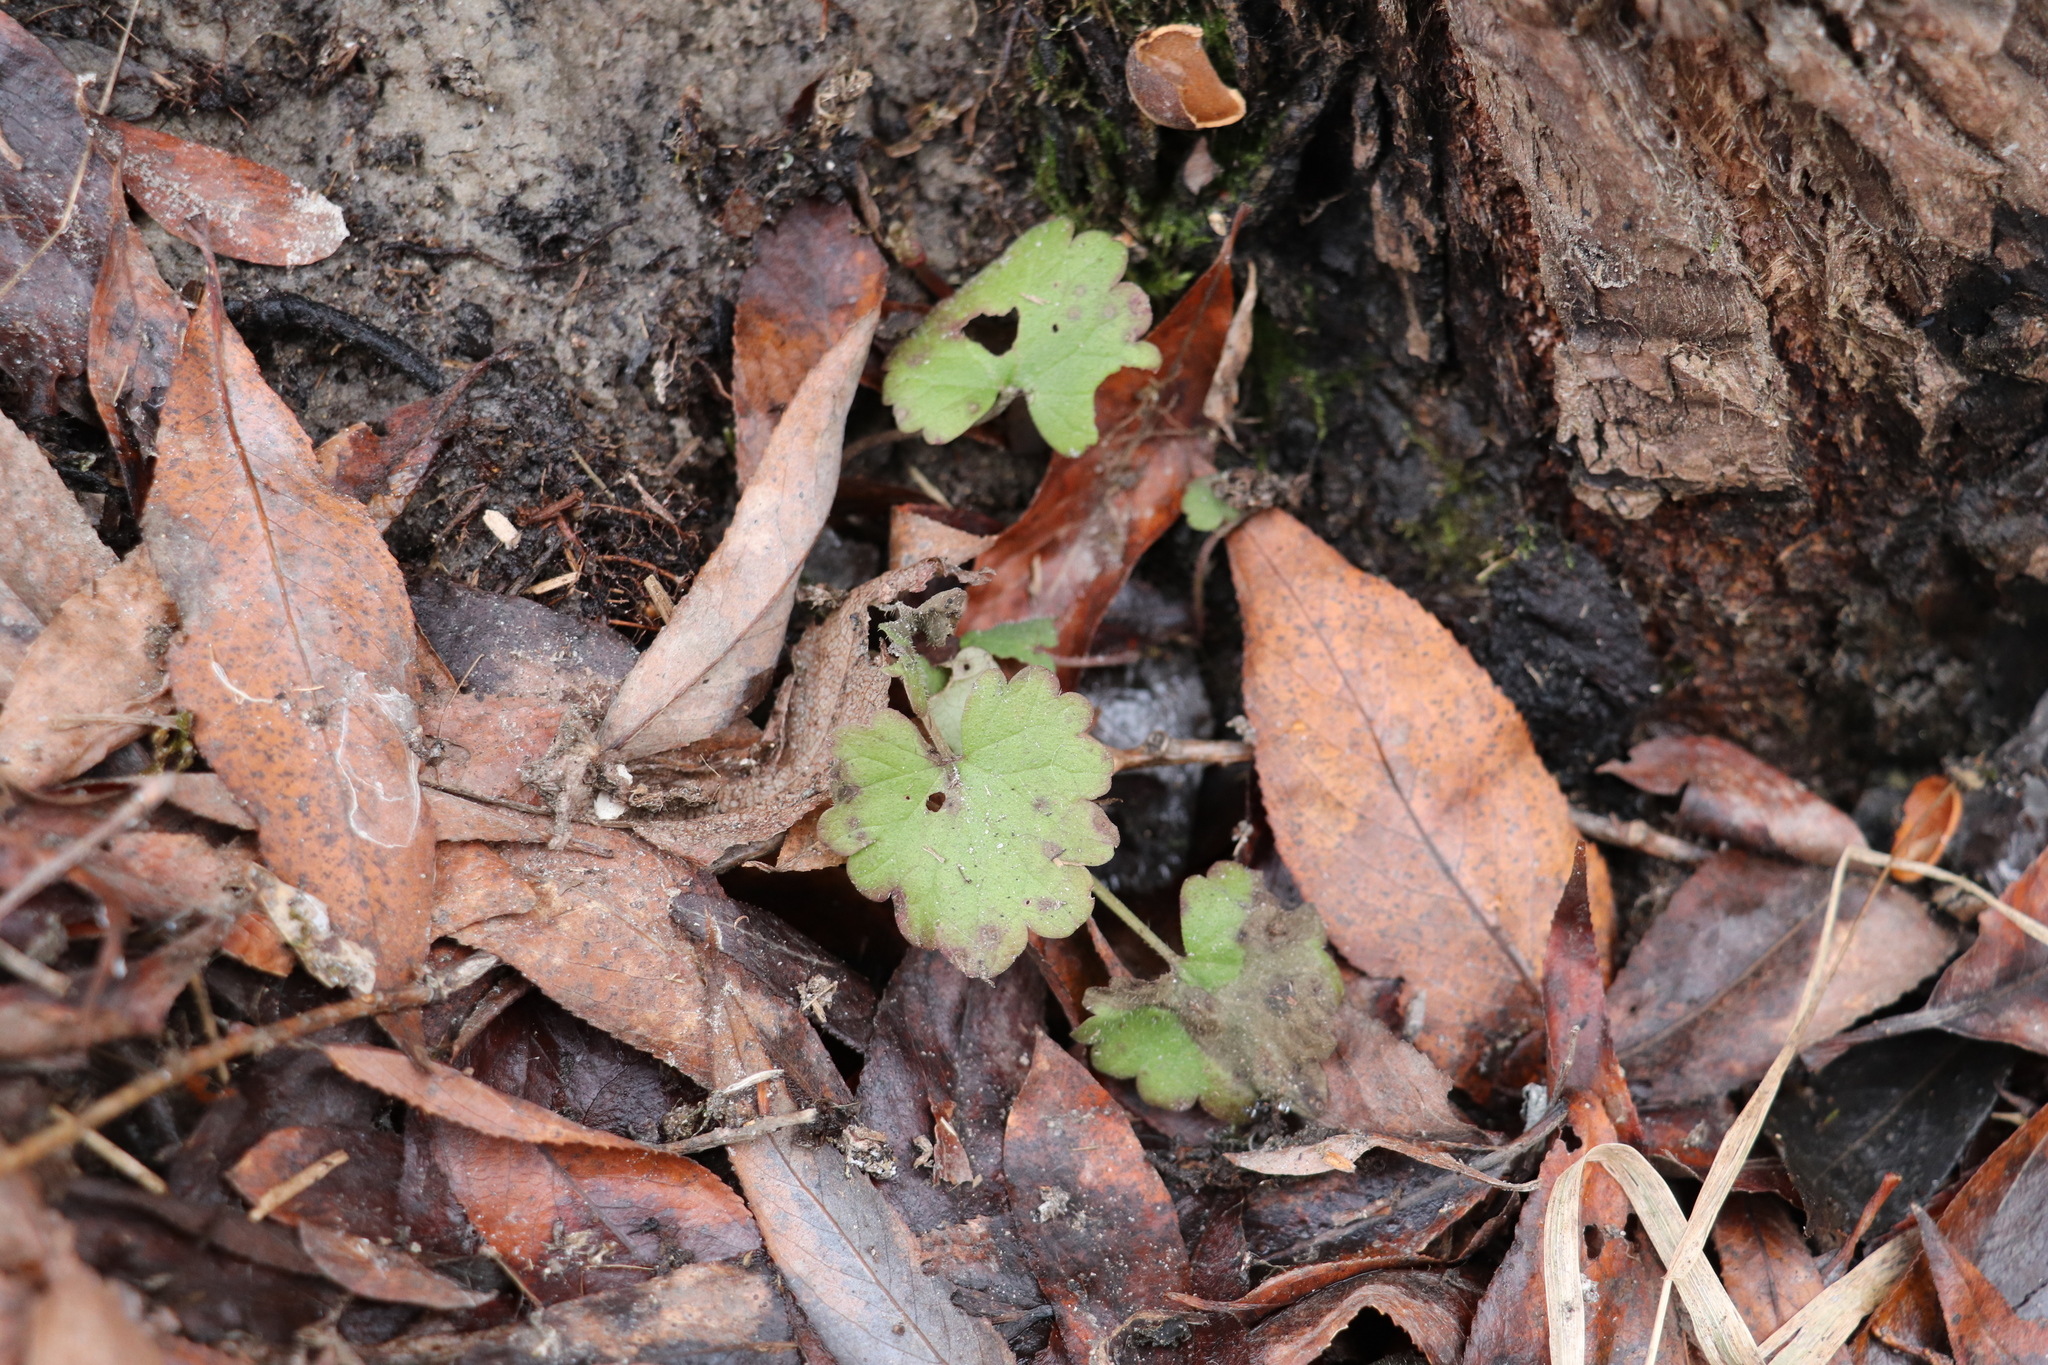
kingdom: Plantae
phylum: Tracheophyta
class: Magnoliopsida
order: Lamiales
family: Lamiaceae
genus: Glechoma
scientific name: Glechoma hederacea
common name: Ground ivy
